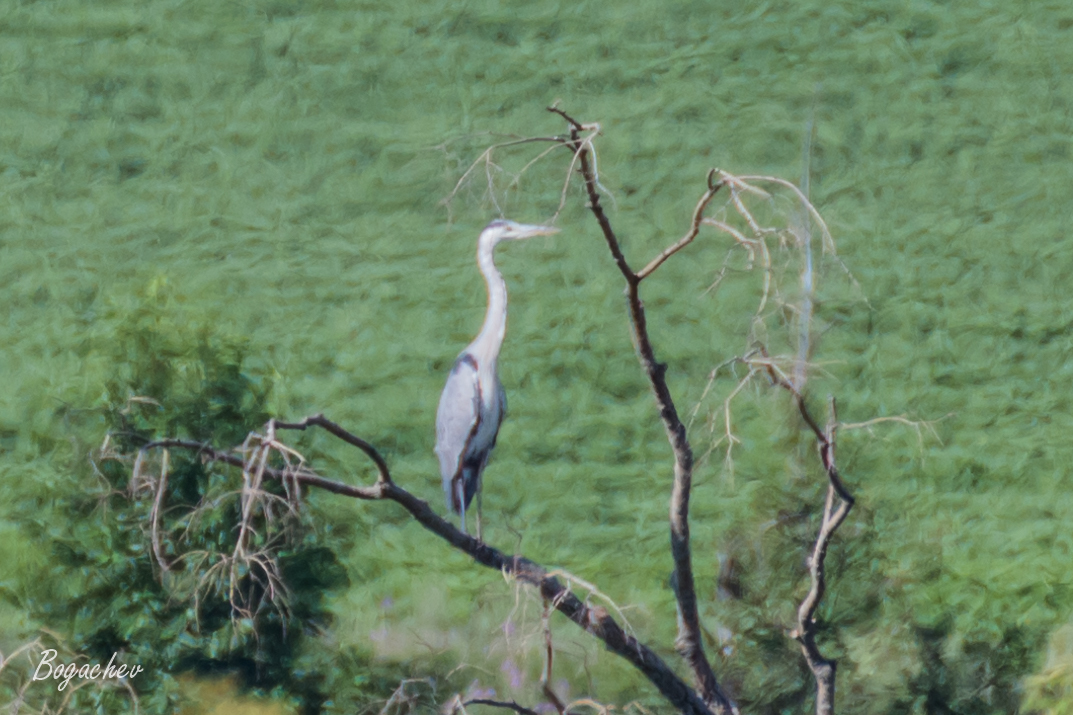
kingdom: Animalia
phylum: Chordata
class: Aves
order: Pelecaniformes
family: Ardeidae
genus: Ardea
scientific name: Ardea cinerea
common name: Grey heron
